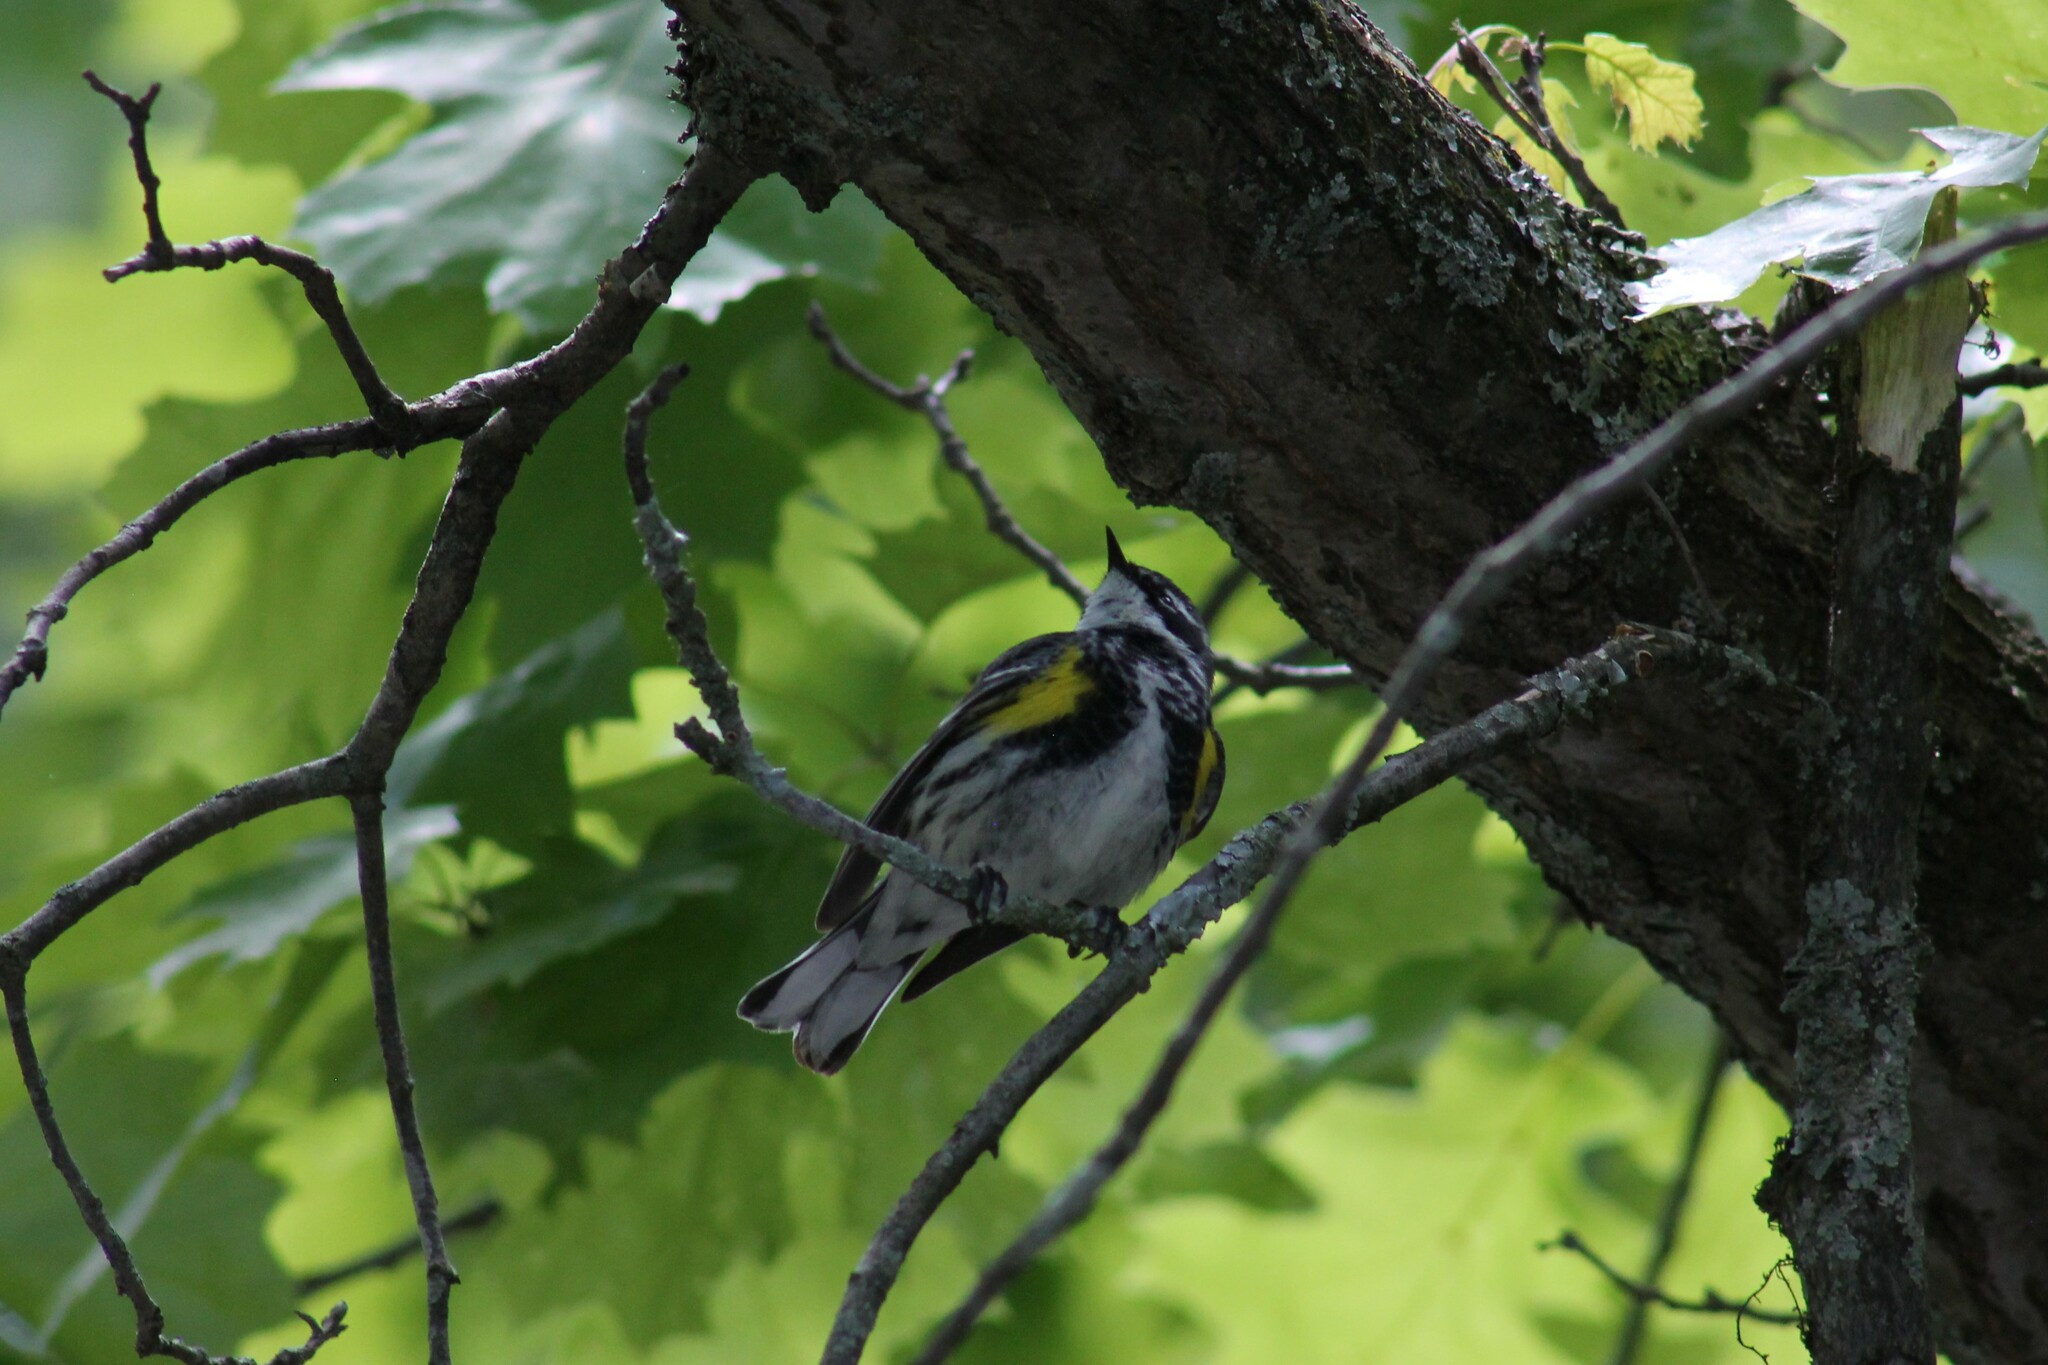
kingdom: Animalia
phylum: Chordata
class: Aves
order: Passeriformes
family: Parulidae
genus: Setophaga
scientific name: Setophaga coronata
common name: Myrtle warbler
